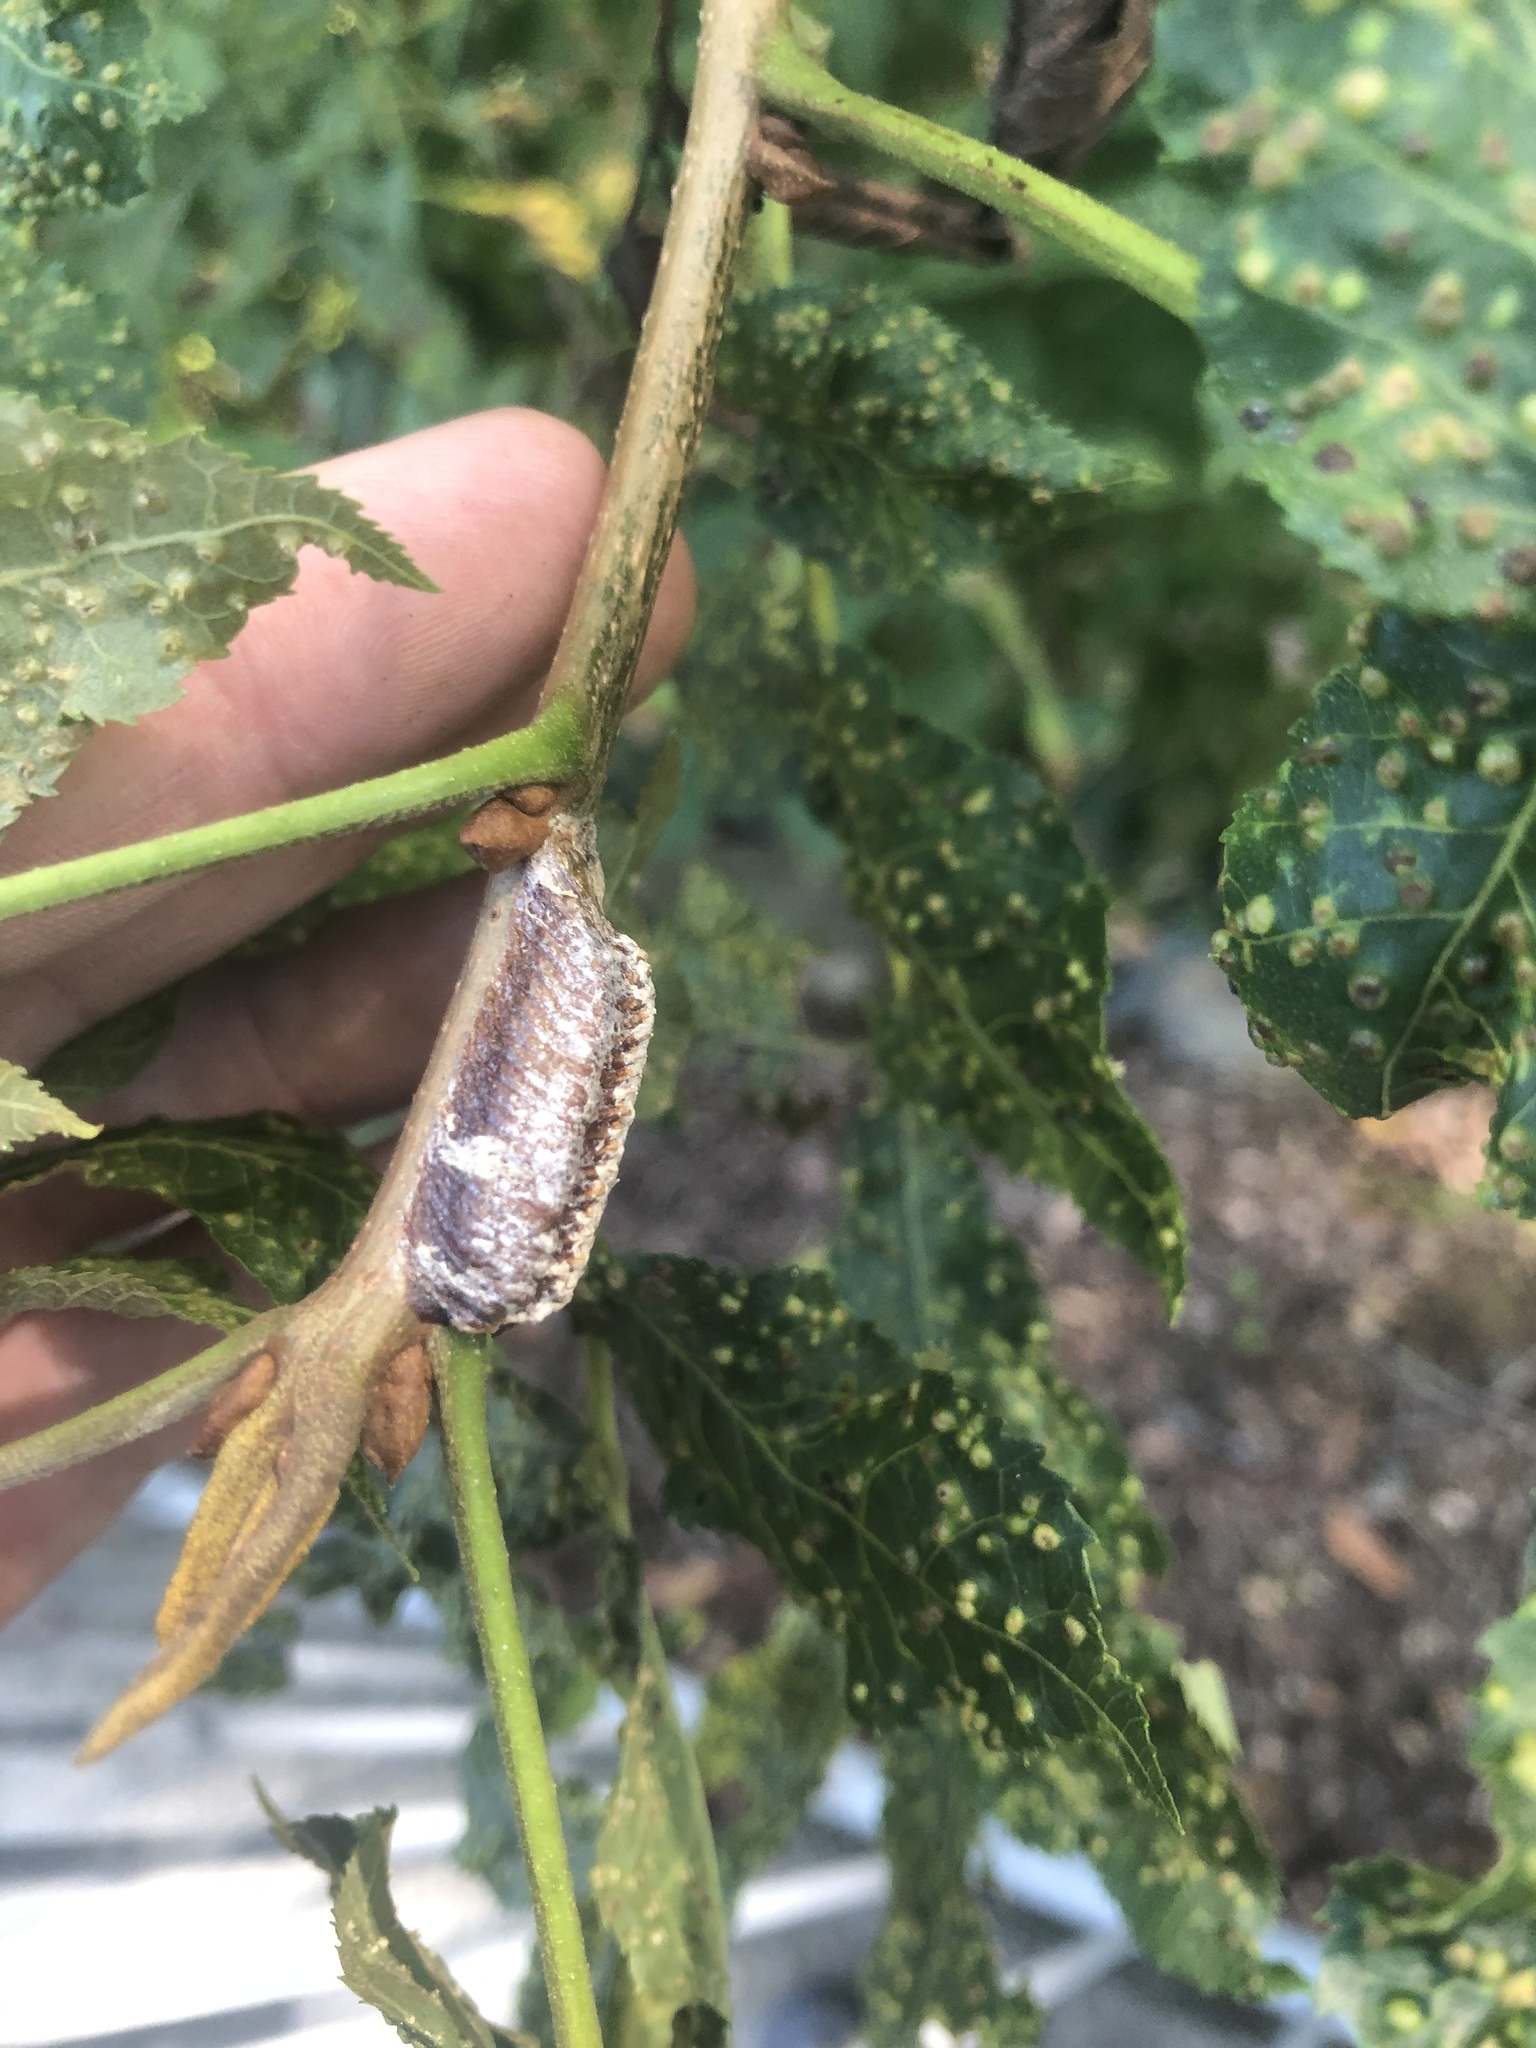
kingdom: Animalia
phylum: Arthropoda
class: Insecta
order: Mantodea
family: Mantidae
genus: Stagmomantis
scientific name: Stagmomantis carolina
